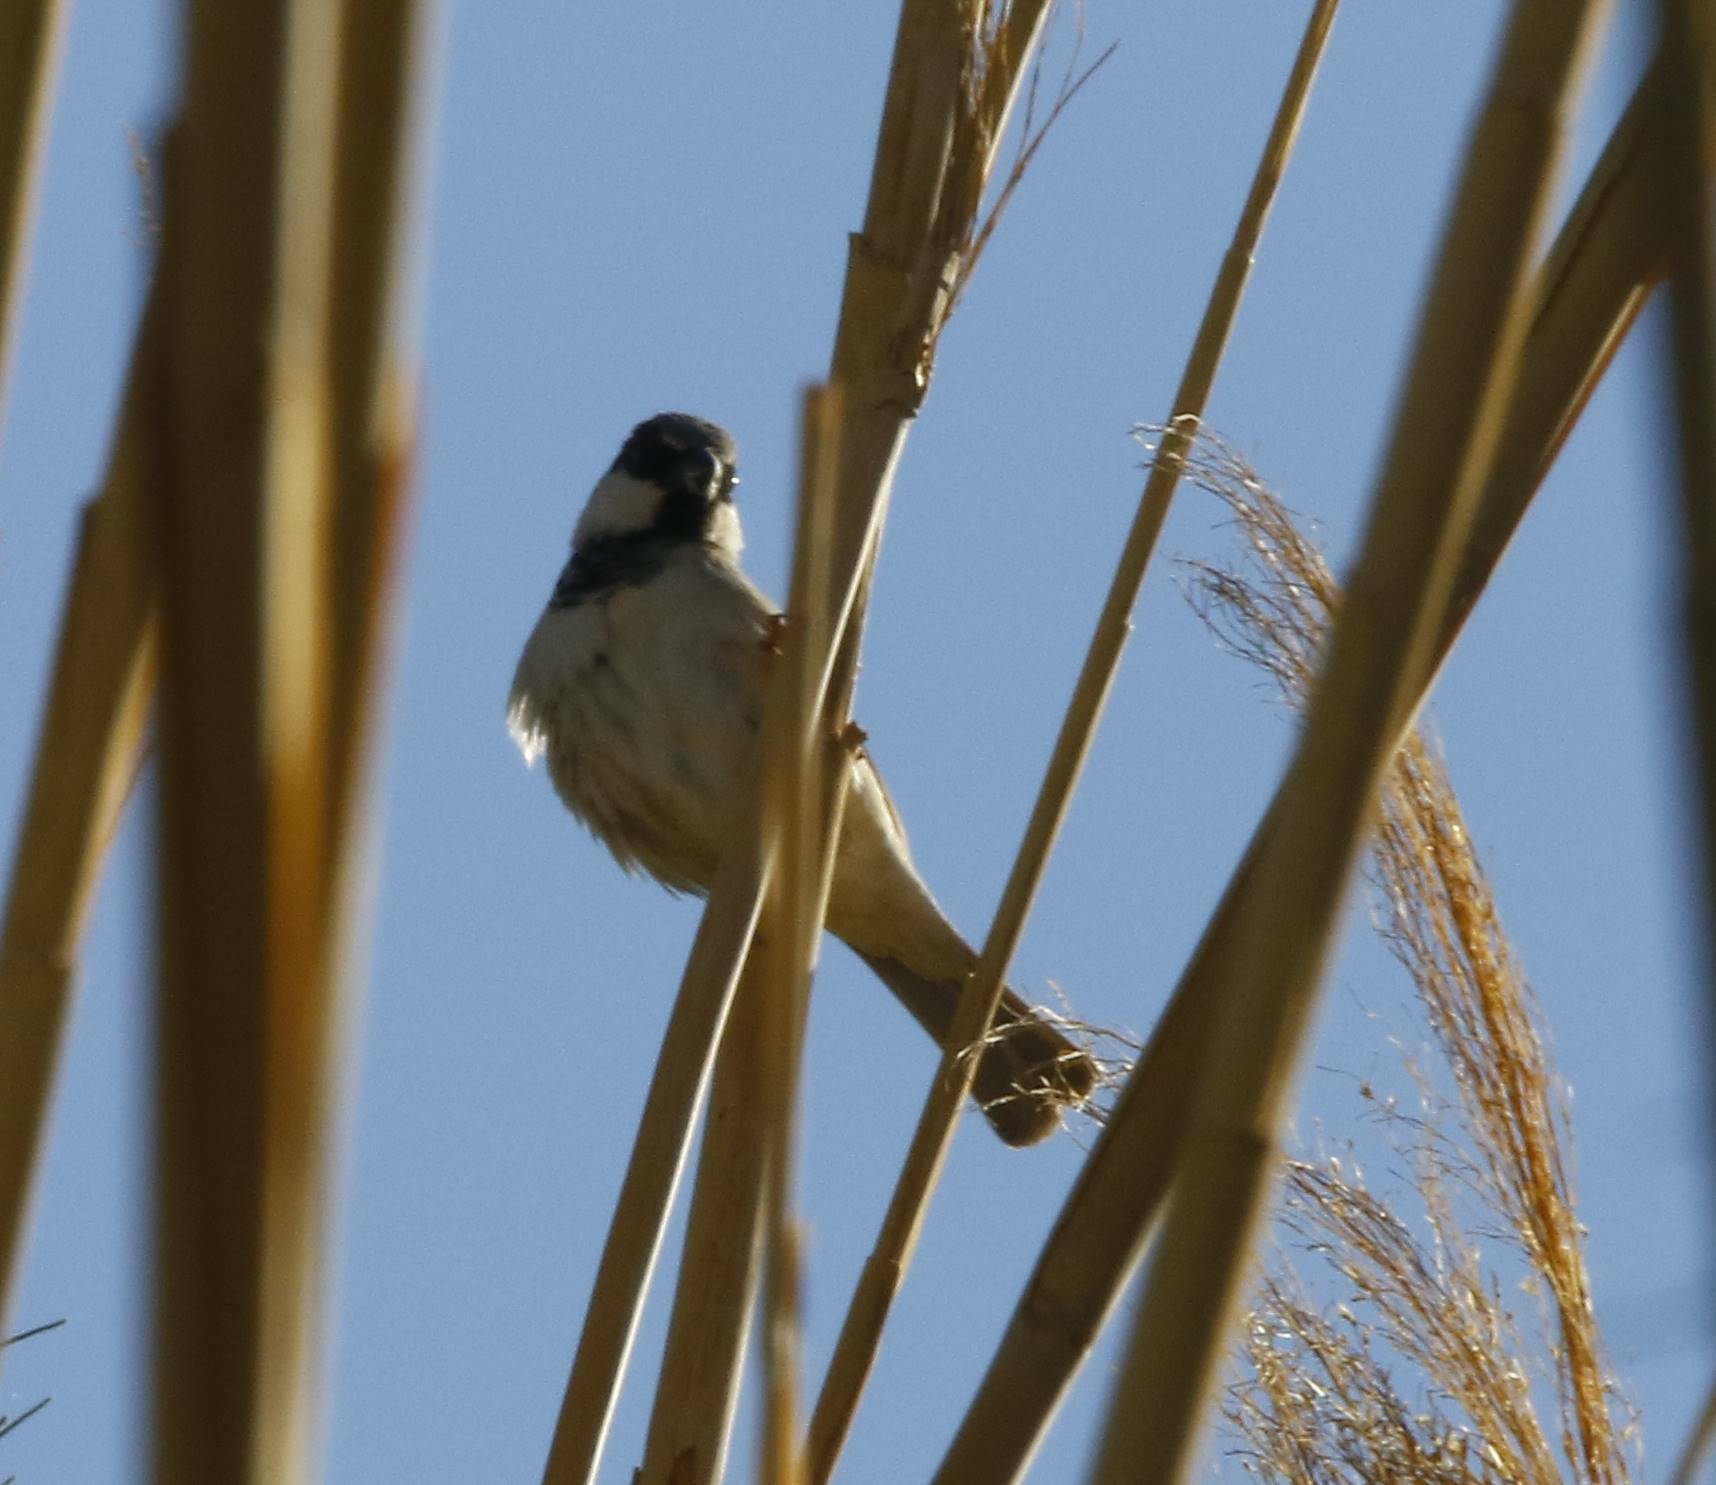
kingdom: Animalia
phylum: Chordata
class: Aves
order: Passeriformes
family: Passeridae
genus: Passer
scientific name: Passer domesticus
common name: House sparrow
